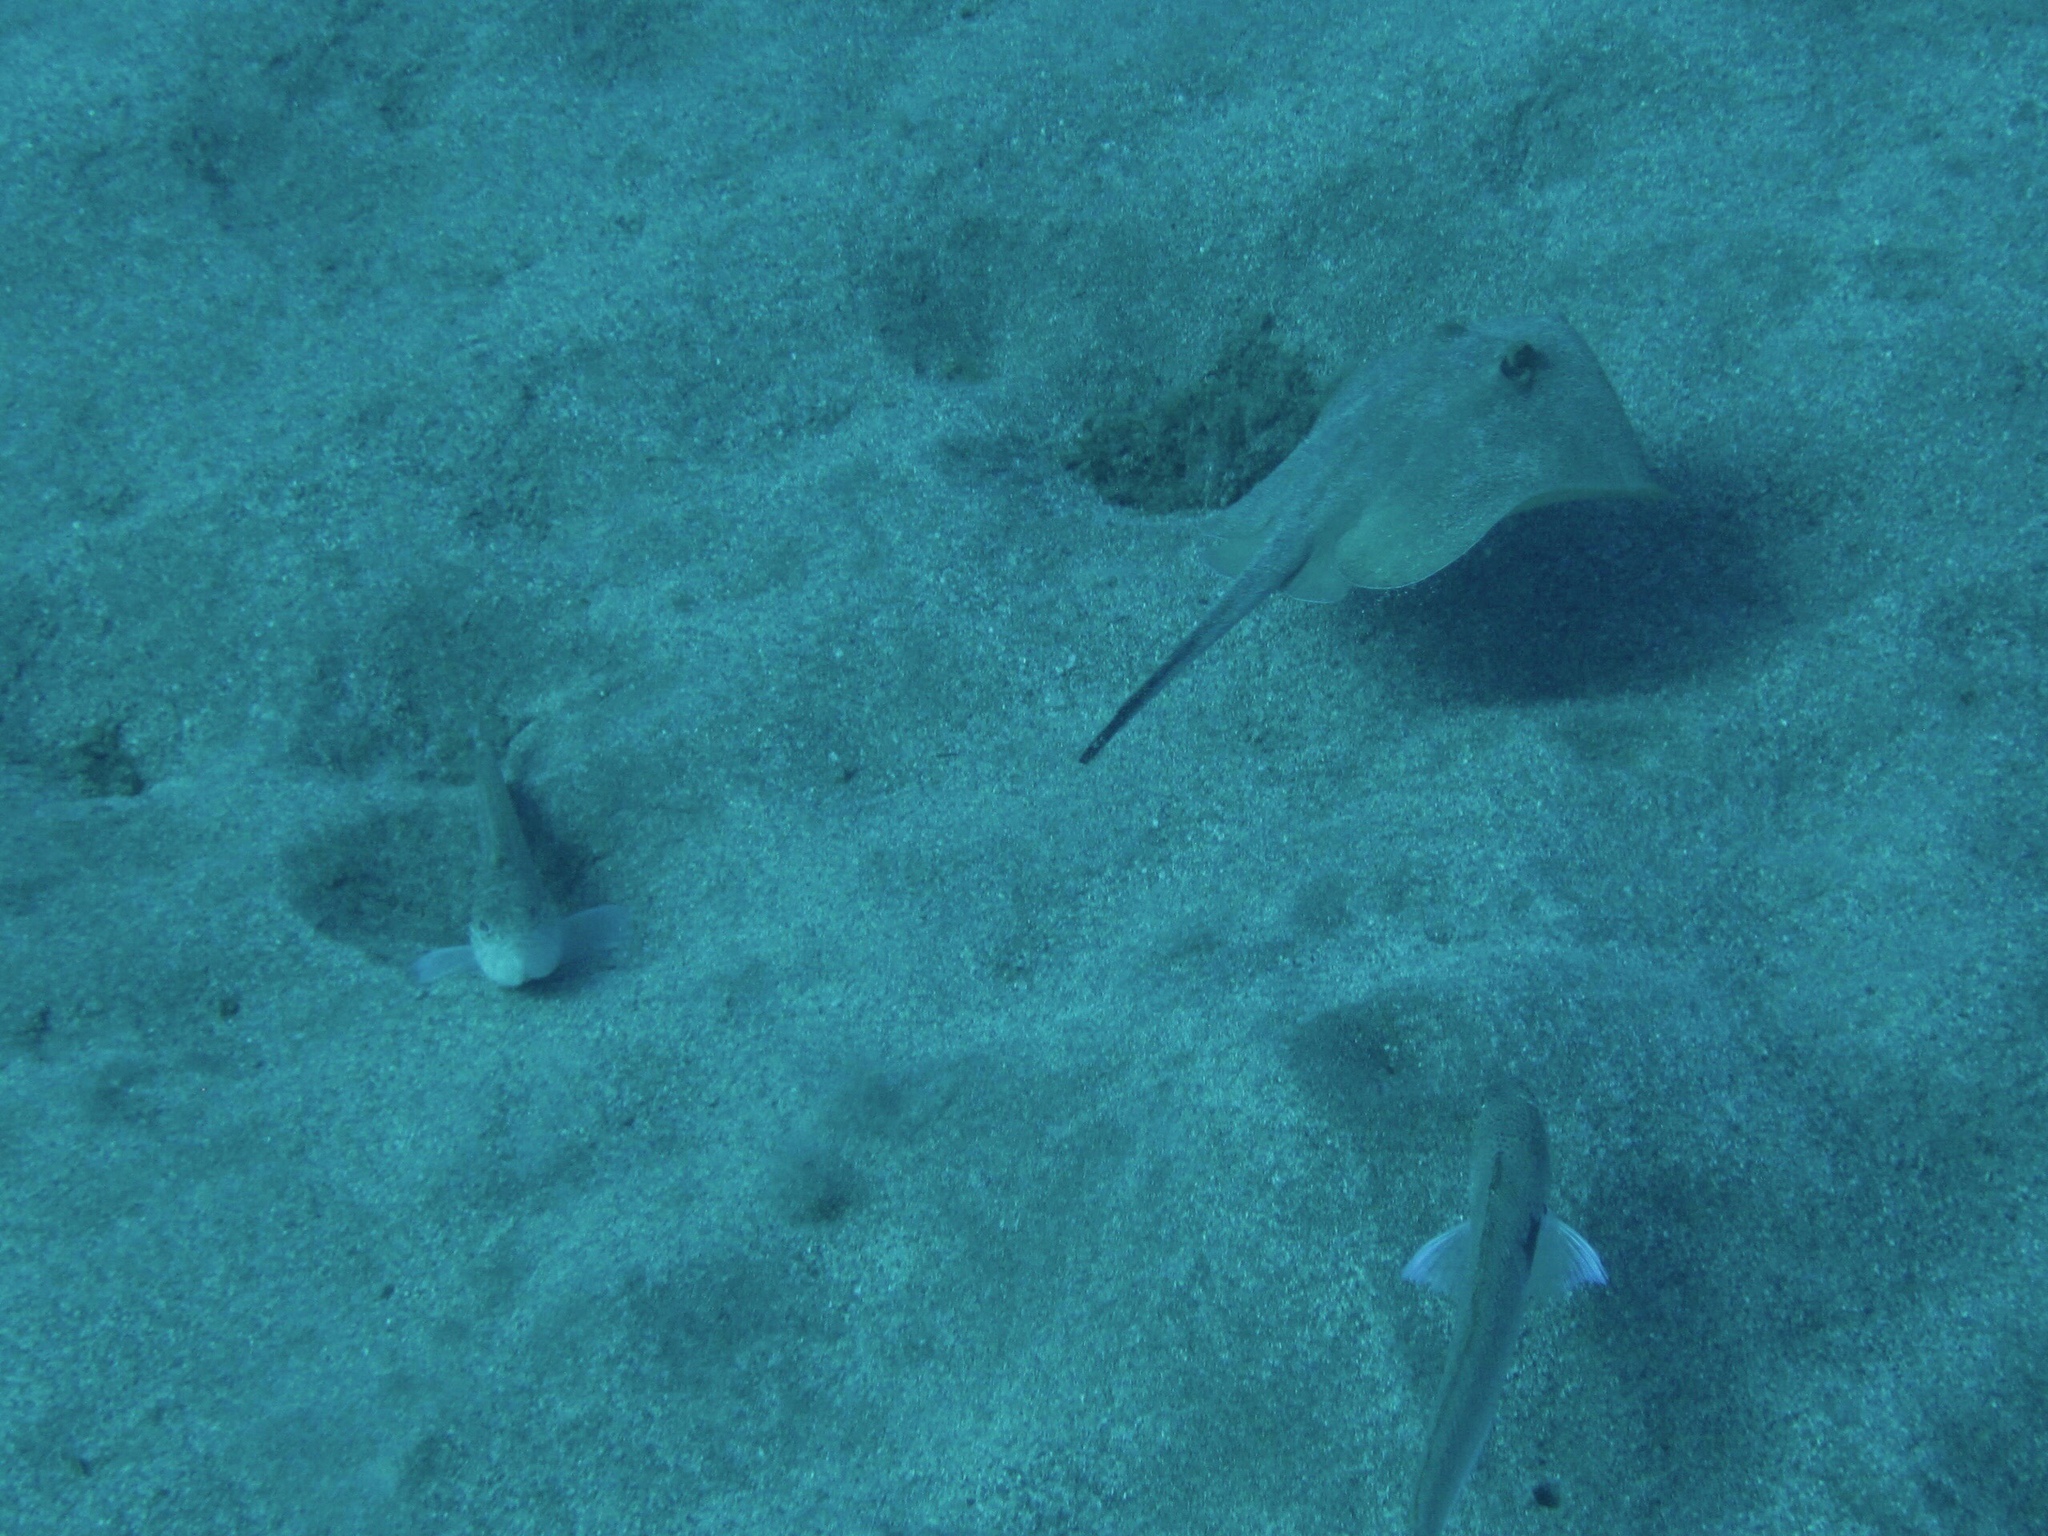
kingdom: Animalia
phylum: Chordata
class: Elasmobranchii
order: Myliobatiformes
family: Dasyatidae
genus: Dasyatis
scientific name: Dasyatis pastinaca
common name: Common stingray
